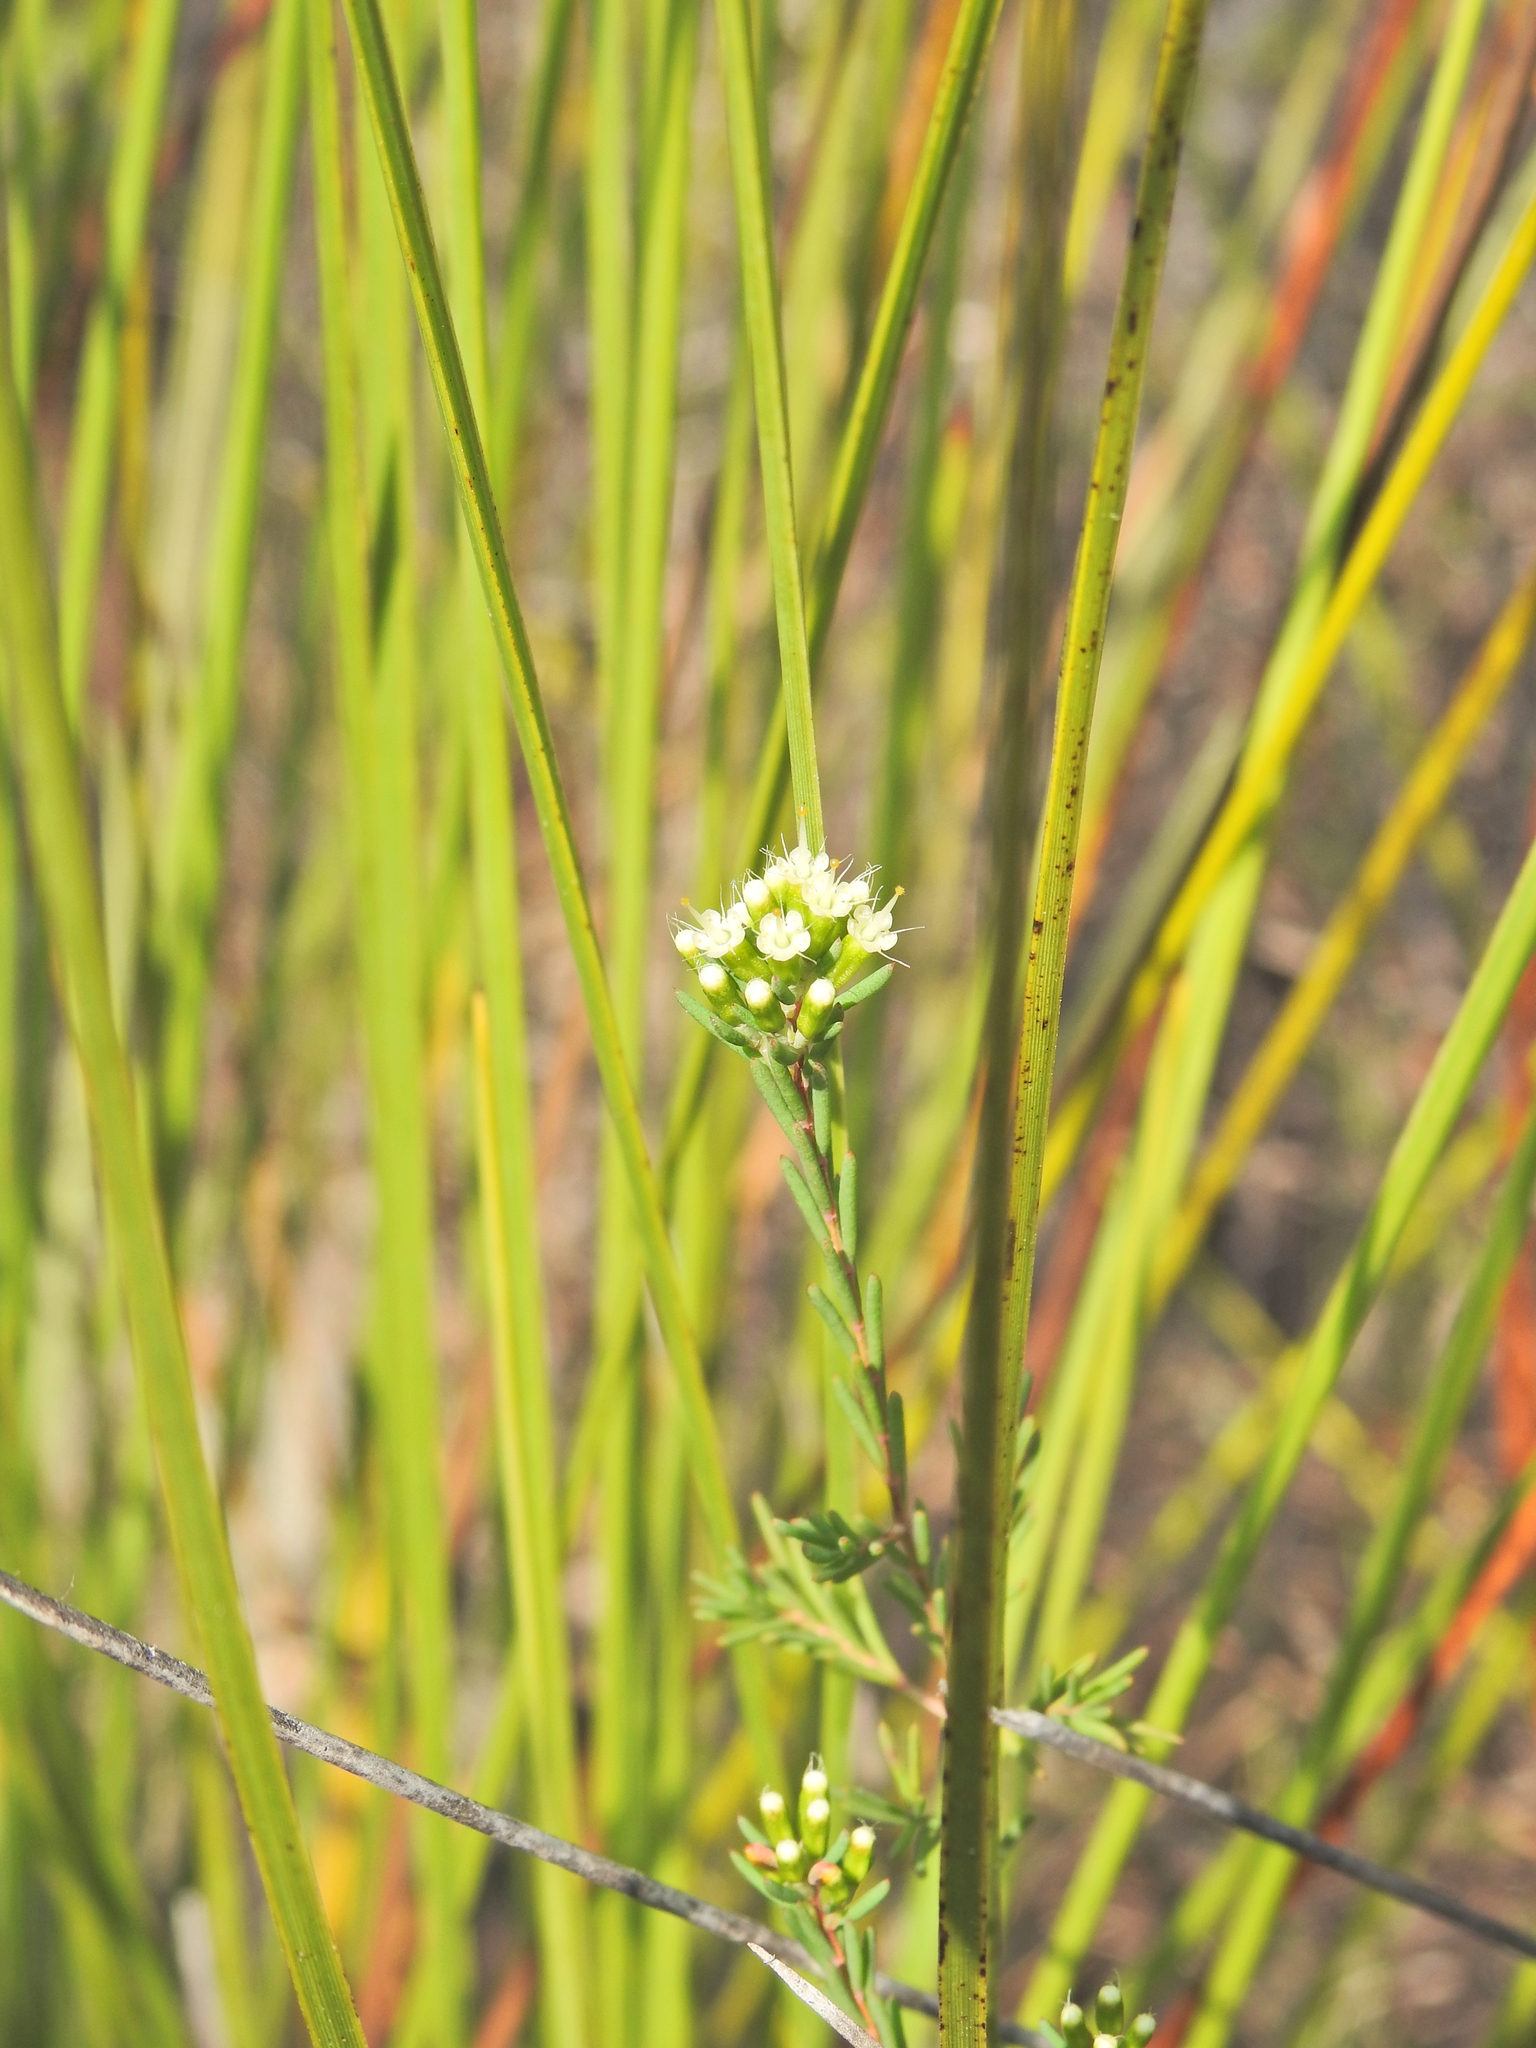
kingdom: Plantae
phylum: Tracheophyta
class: Magnoliopsida
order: Myrtales
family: Myrtaceae
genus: Homoranthus
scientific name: Homoranthus virgatus
